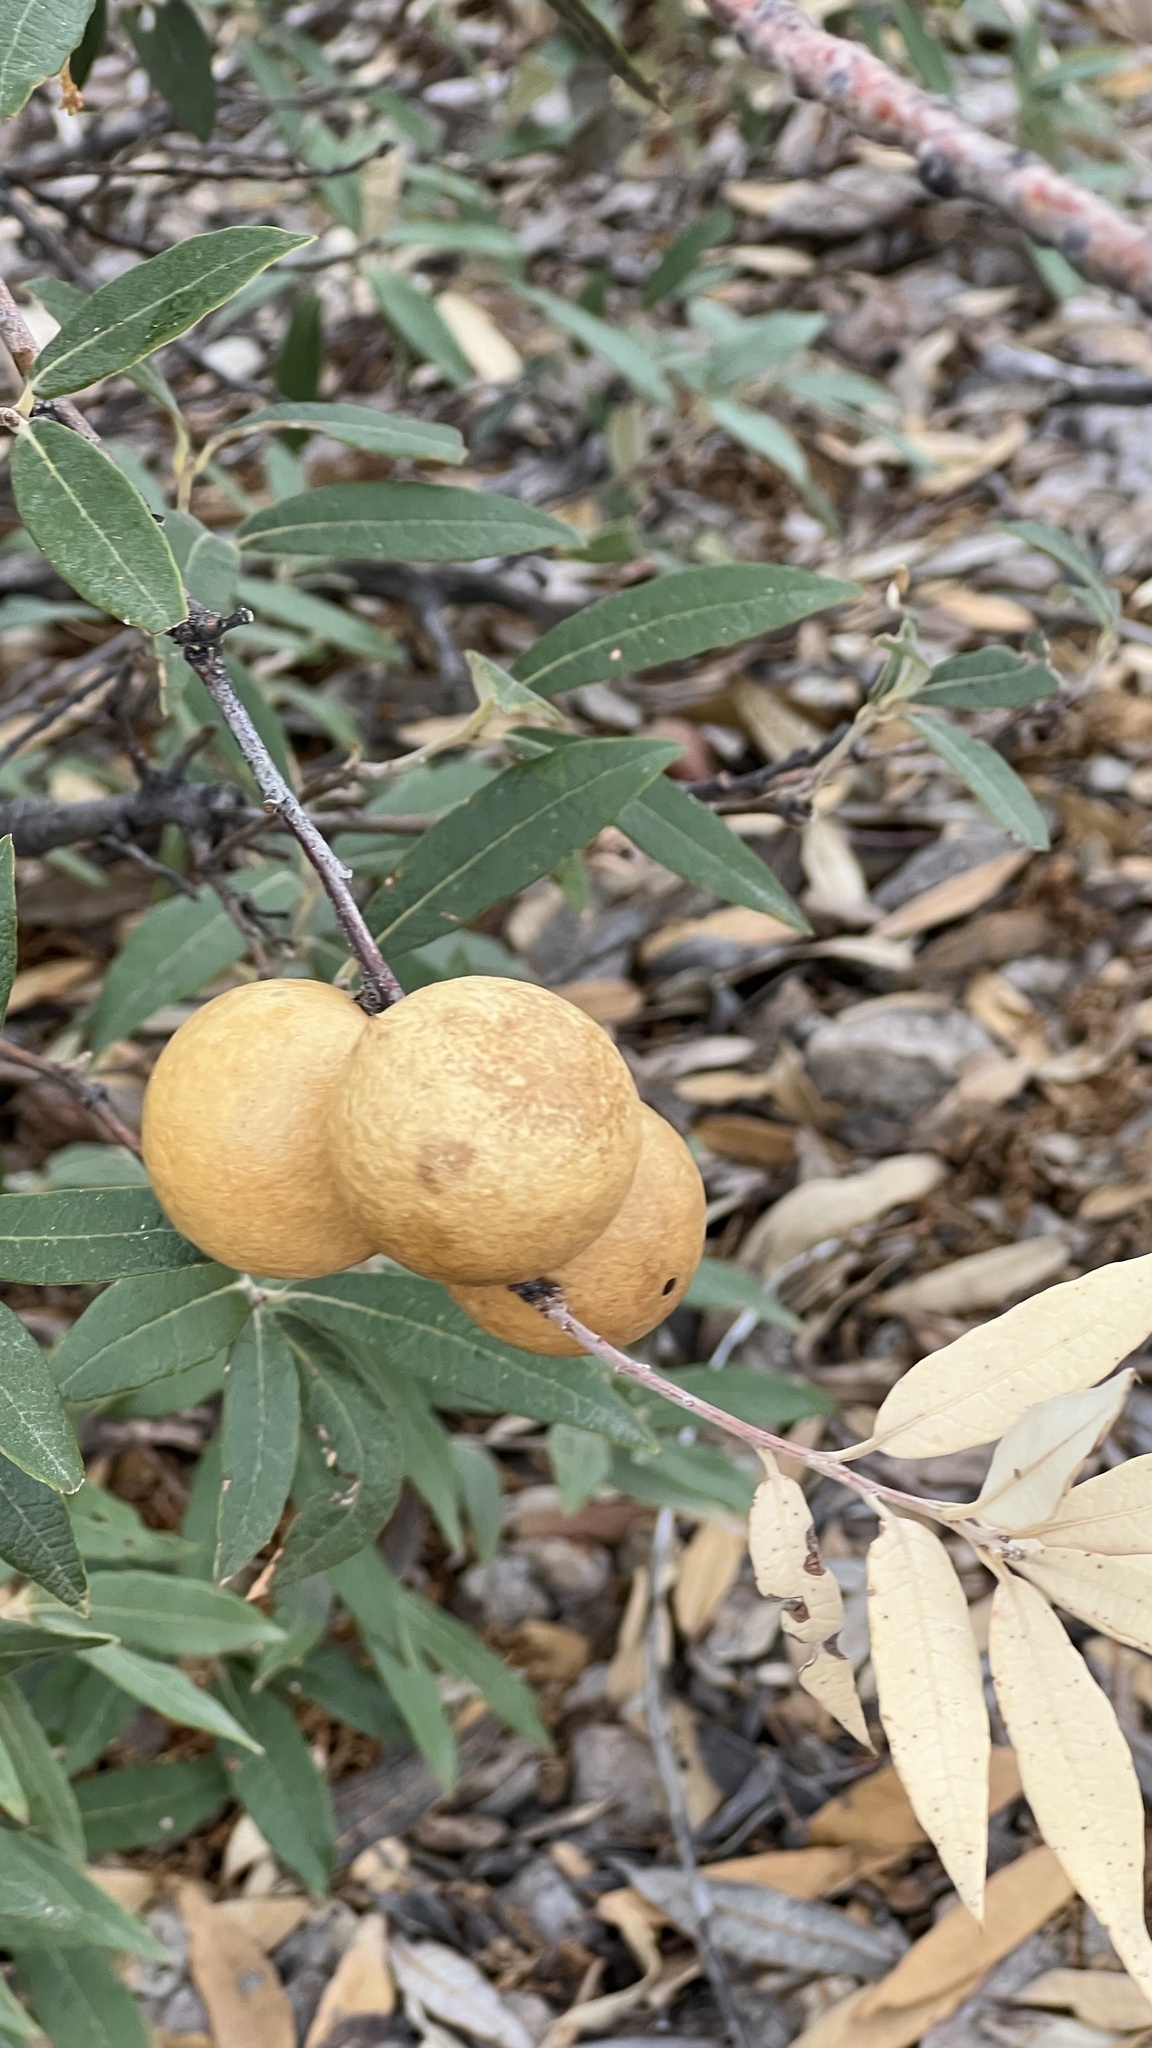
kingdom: Animalia
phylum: Arthropoda
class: Insecta
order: Hymenoptera
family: Cynipidae
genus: Amphibolips
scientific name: Amphibolips
